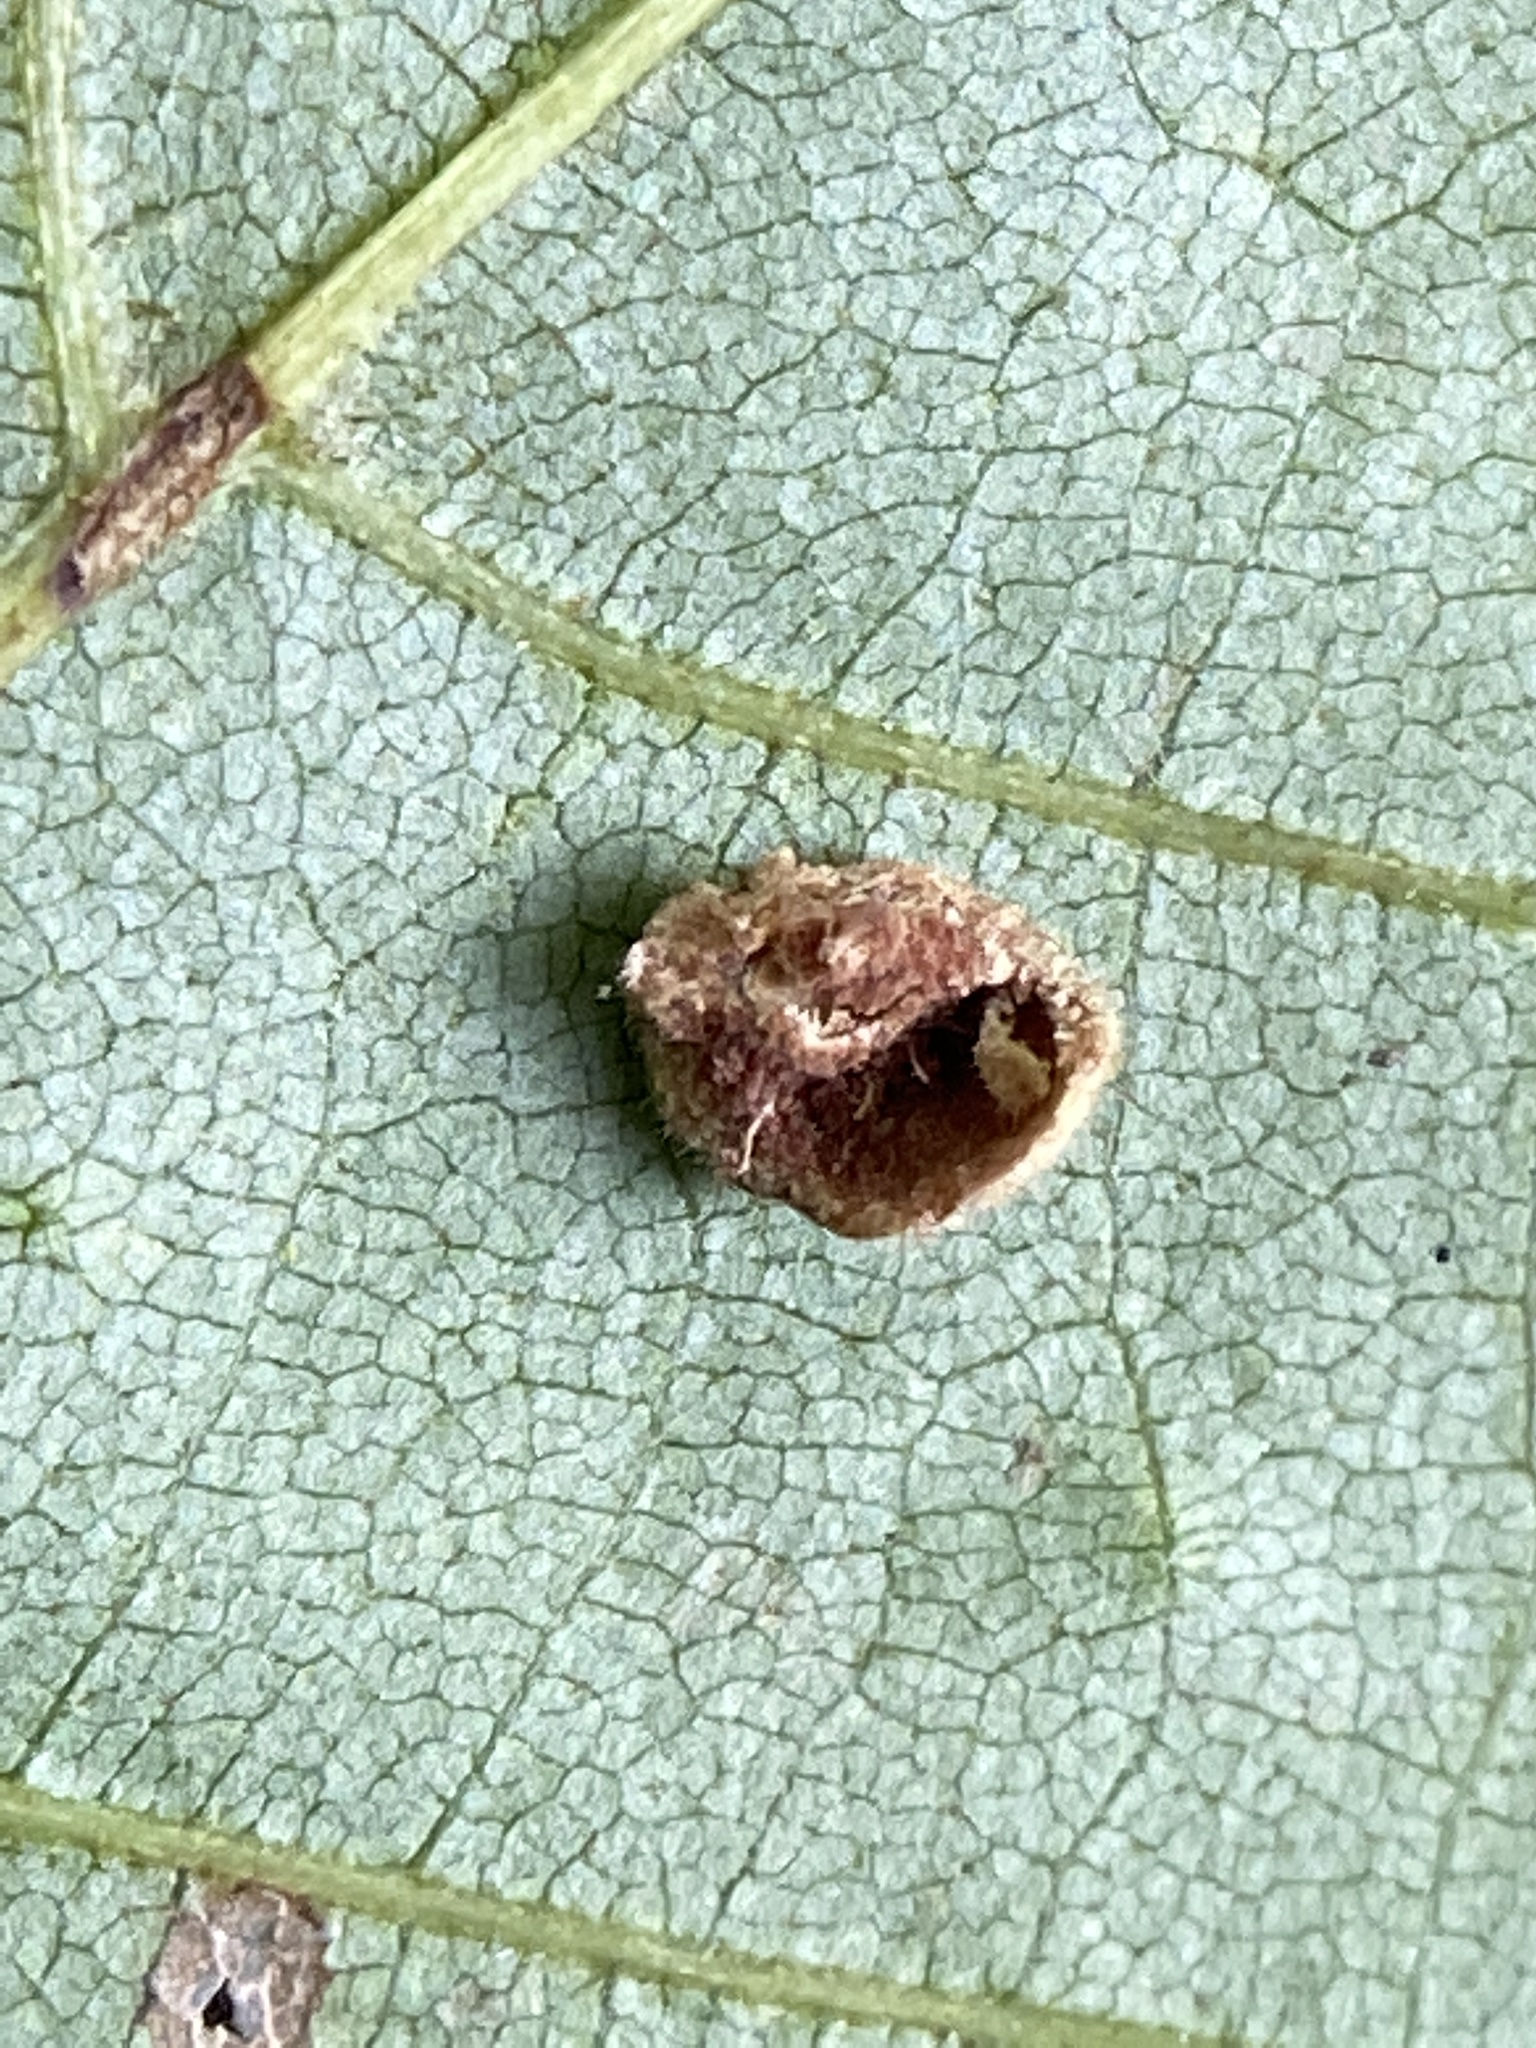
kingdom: Animalia
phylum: Arthropoda
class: Insecta
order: Diptera
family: Cecidomyiidae
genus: Caryomyia
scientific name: Caryomyia thompsoni
